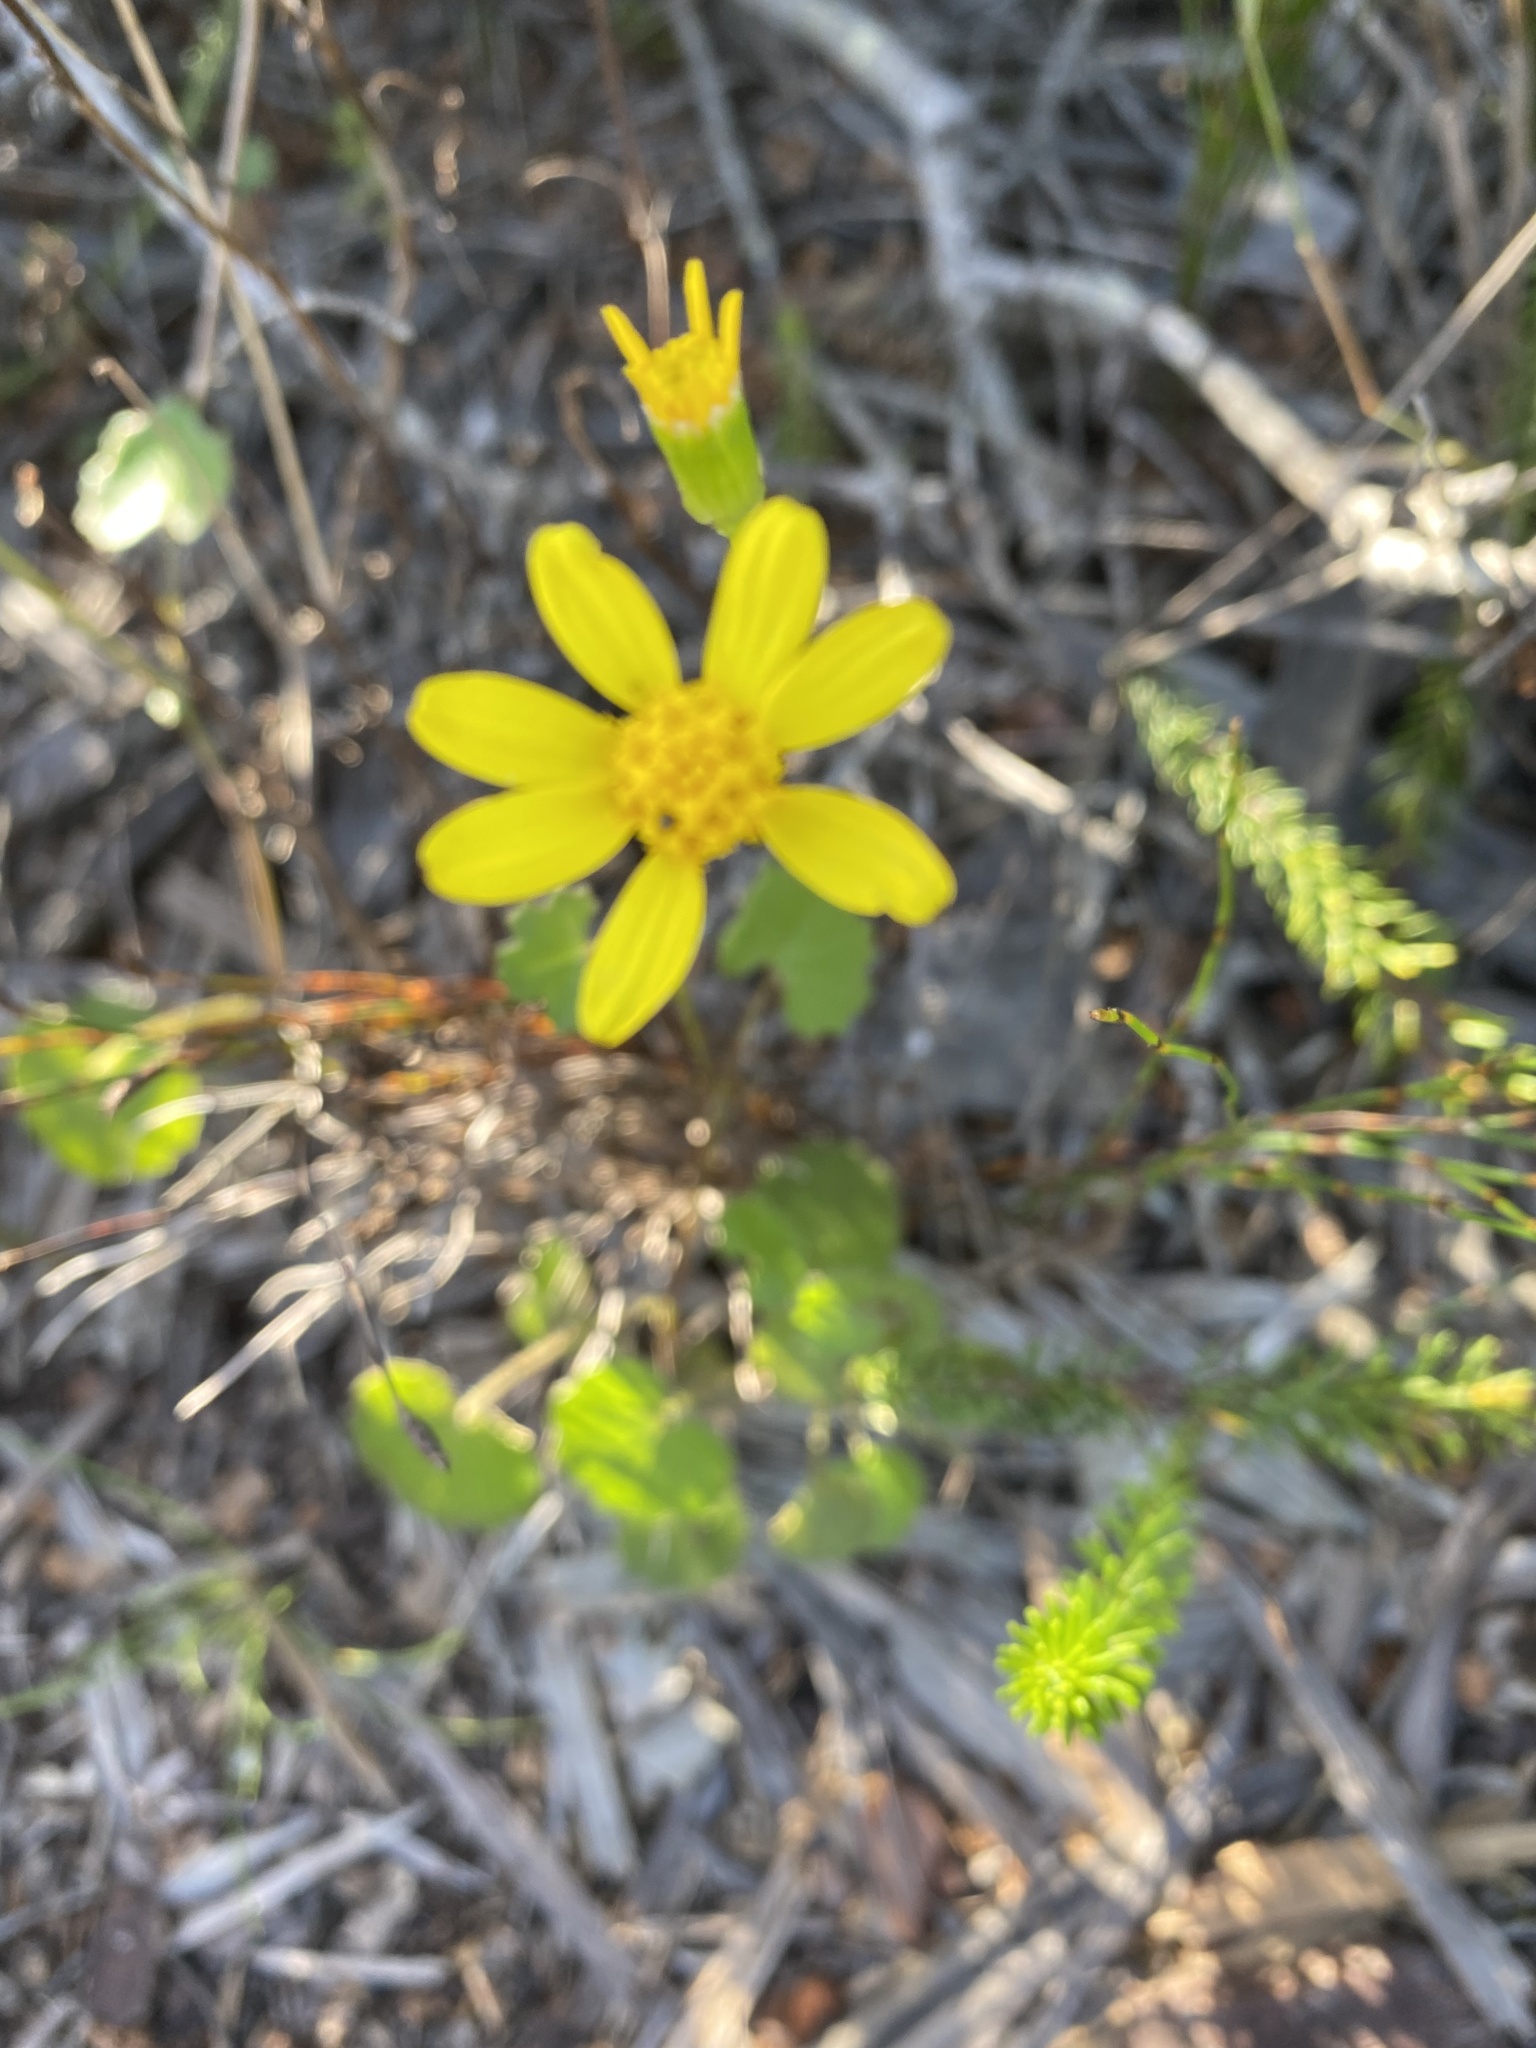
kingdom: Plantae
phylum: Tracheophyta
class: Magnoliopsida
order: Asterales
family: Asteraceae
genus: Cineraria
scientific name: Cineraria geifolia
